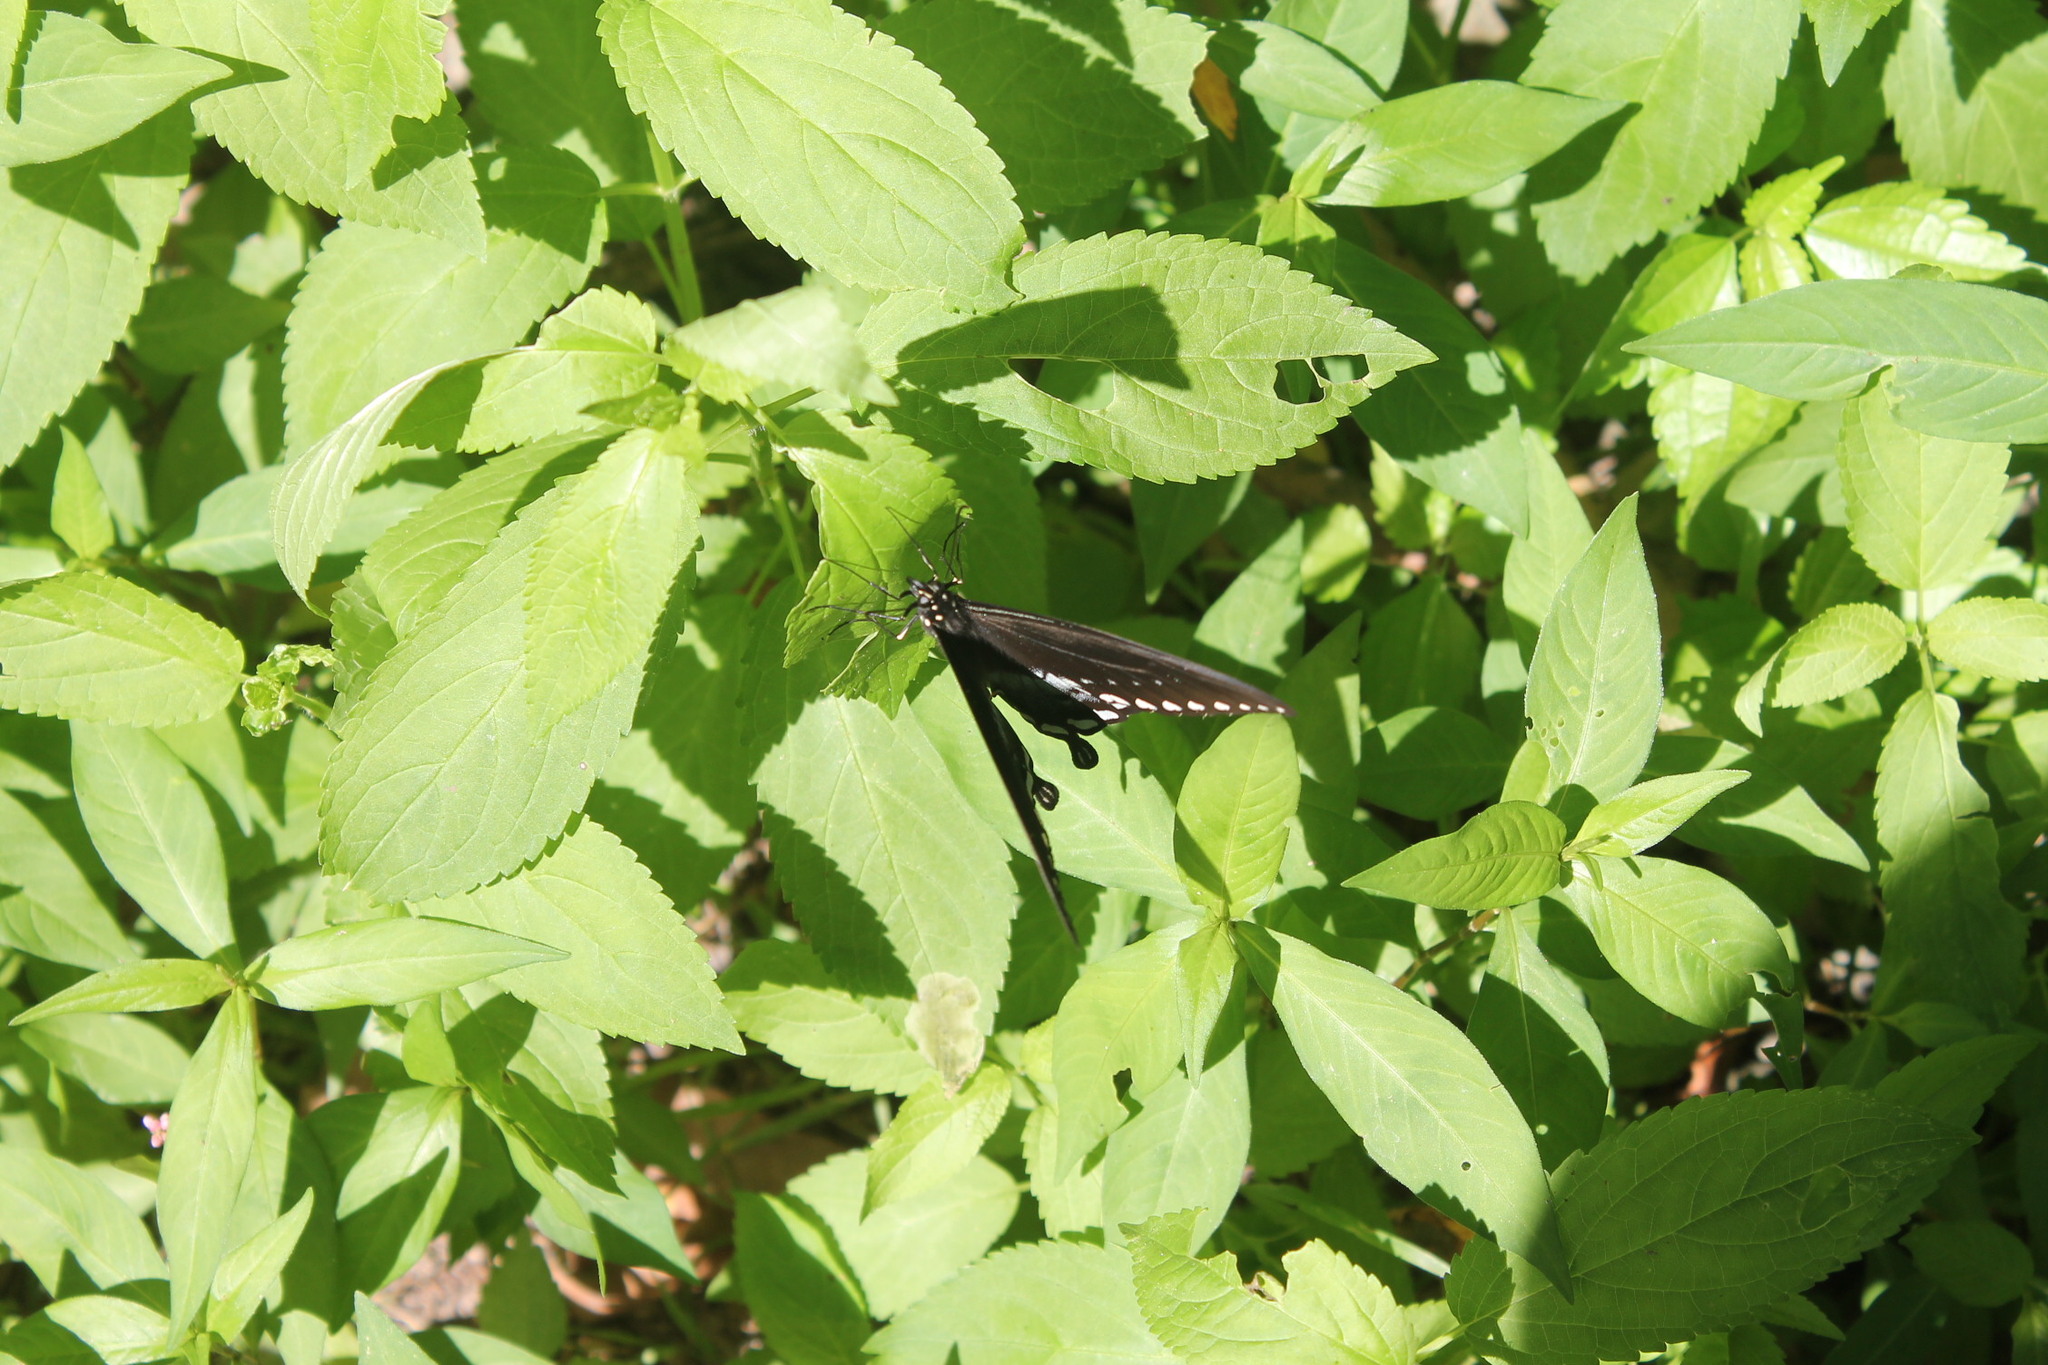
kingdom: Animalia
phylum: Arthropoda
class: Insecta
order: Lepidoptera
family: Papilionidae
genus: Papilio
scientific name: Papilio troilus
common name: Spicebush swallowtail
